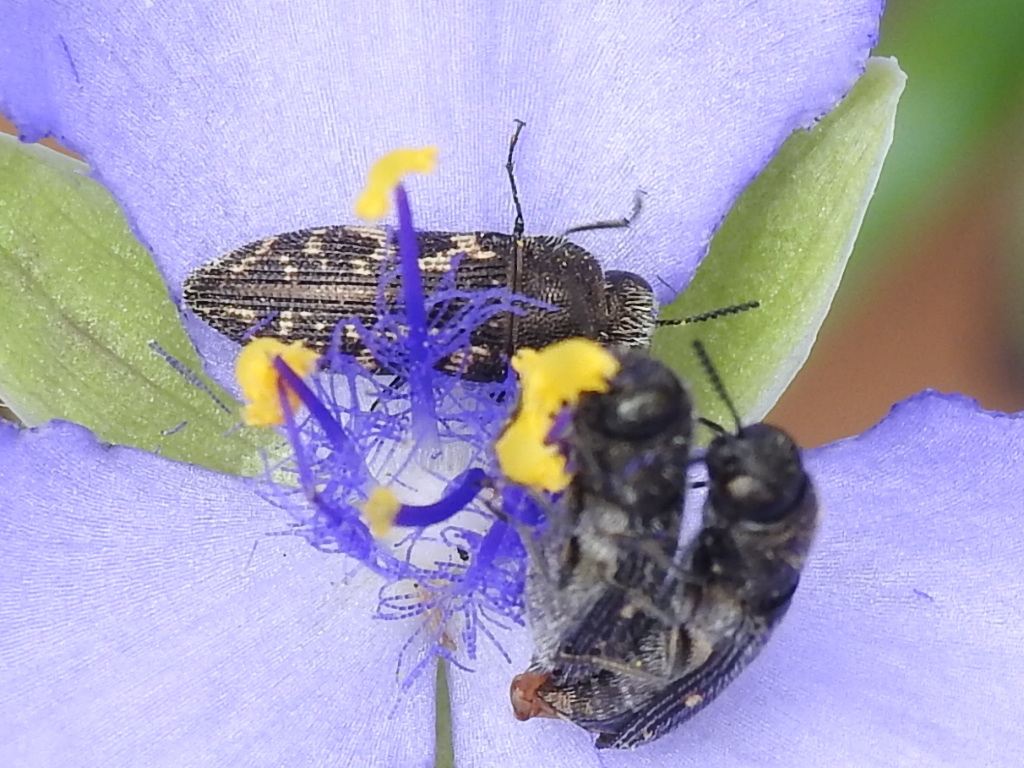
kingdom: Animalia
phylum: Arthropoda
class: Insecta
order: Coleoptera
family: Buprestidae
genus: Acmaeodera
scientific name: Acmaeodera neglecta
